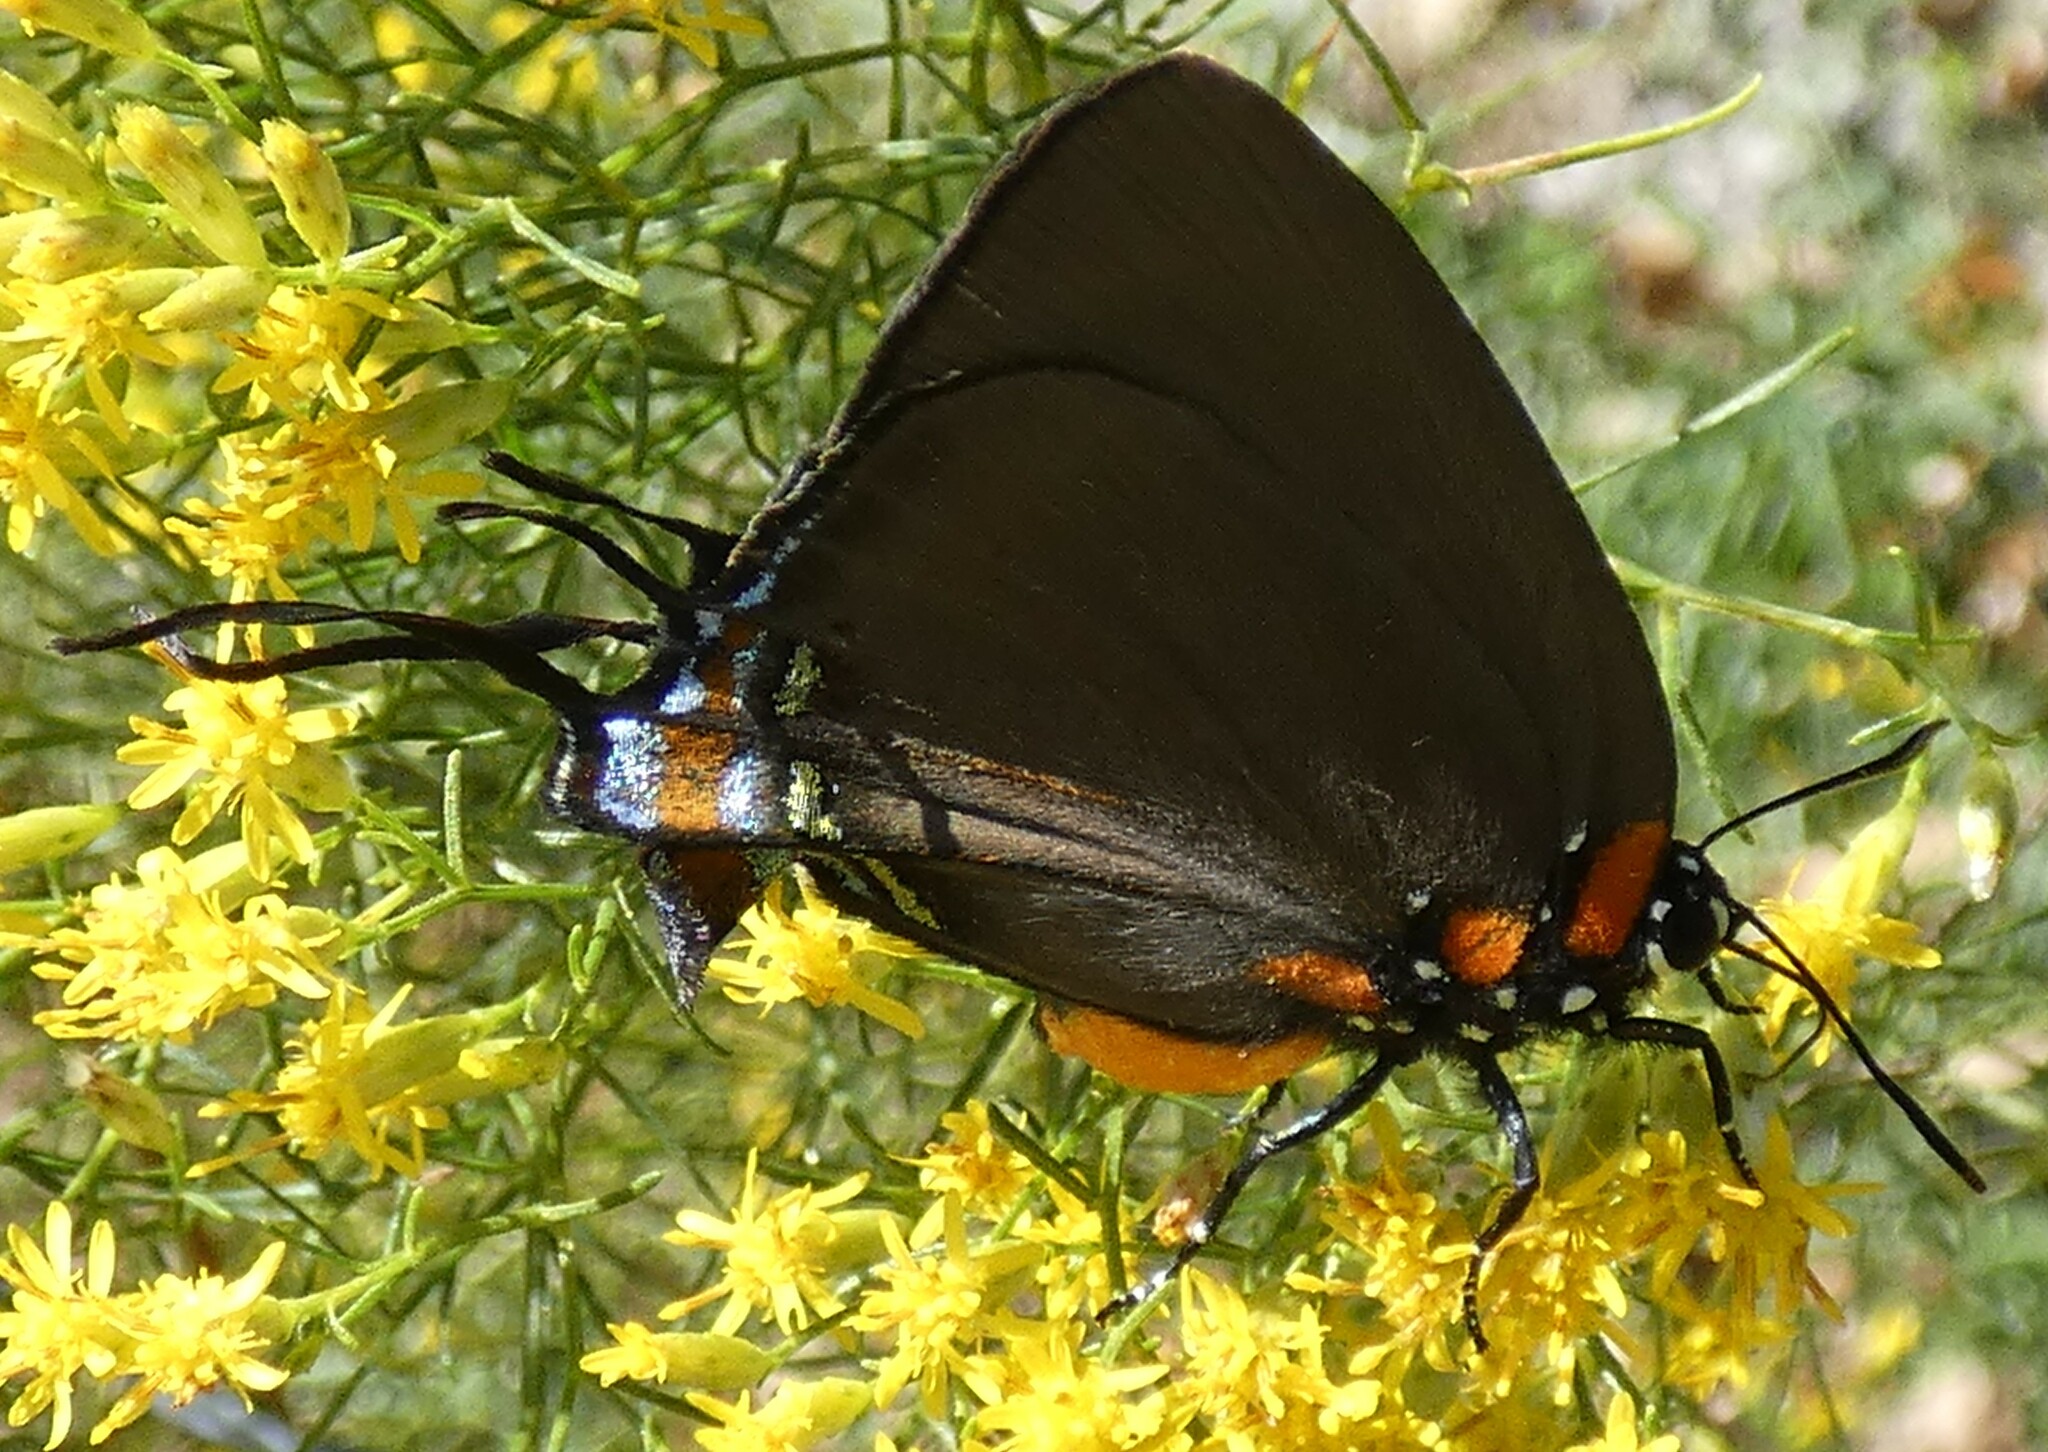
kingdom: Animalia
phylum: Arthropoda
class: Insecta
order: Lepidoptera
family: Lycaenidae
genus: Atlides
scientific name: Atlides halesus
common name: Great purple hairstreak
